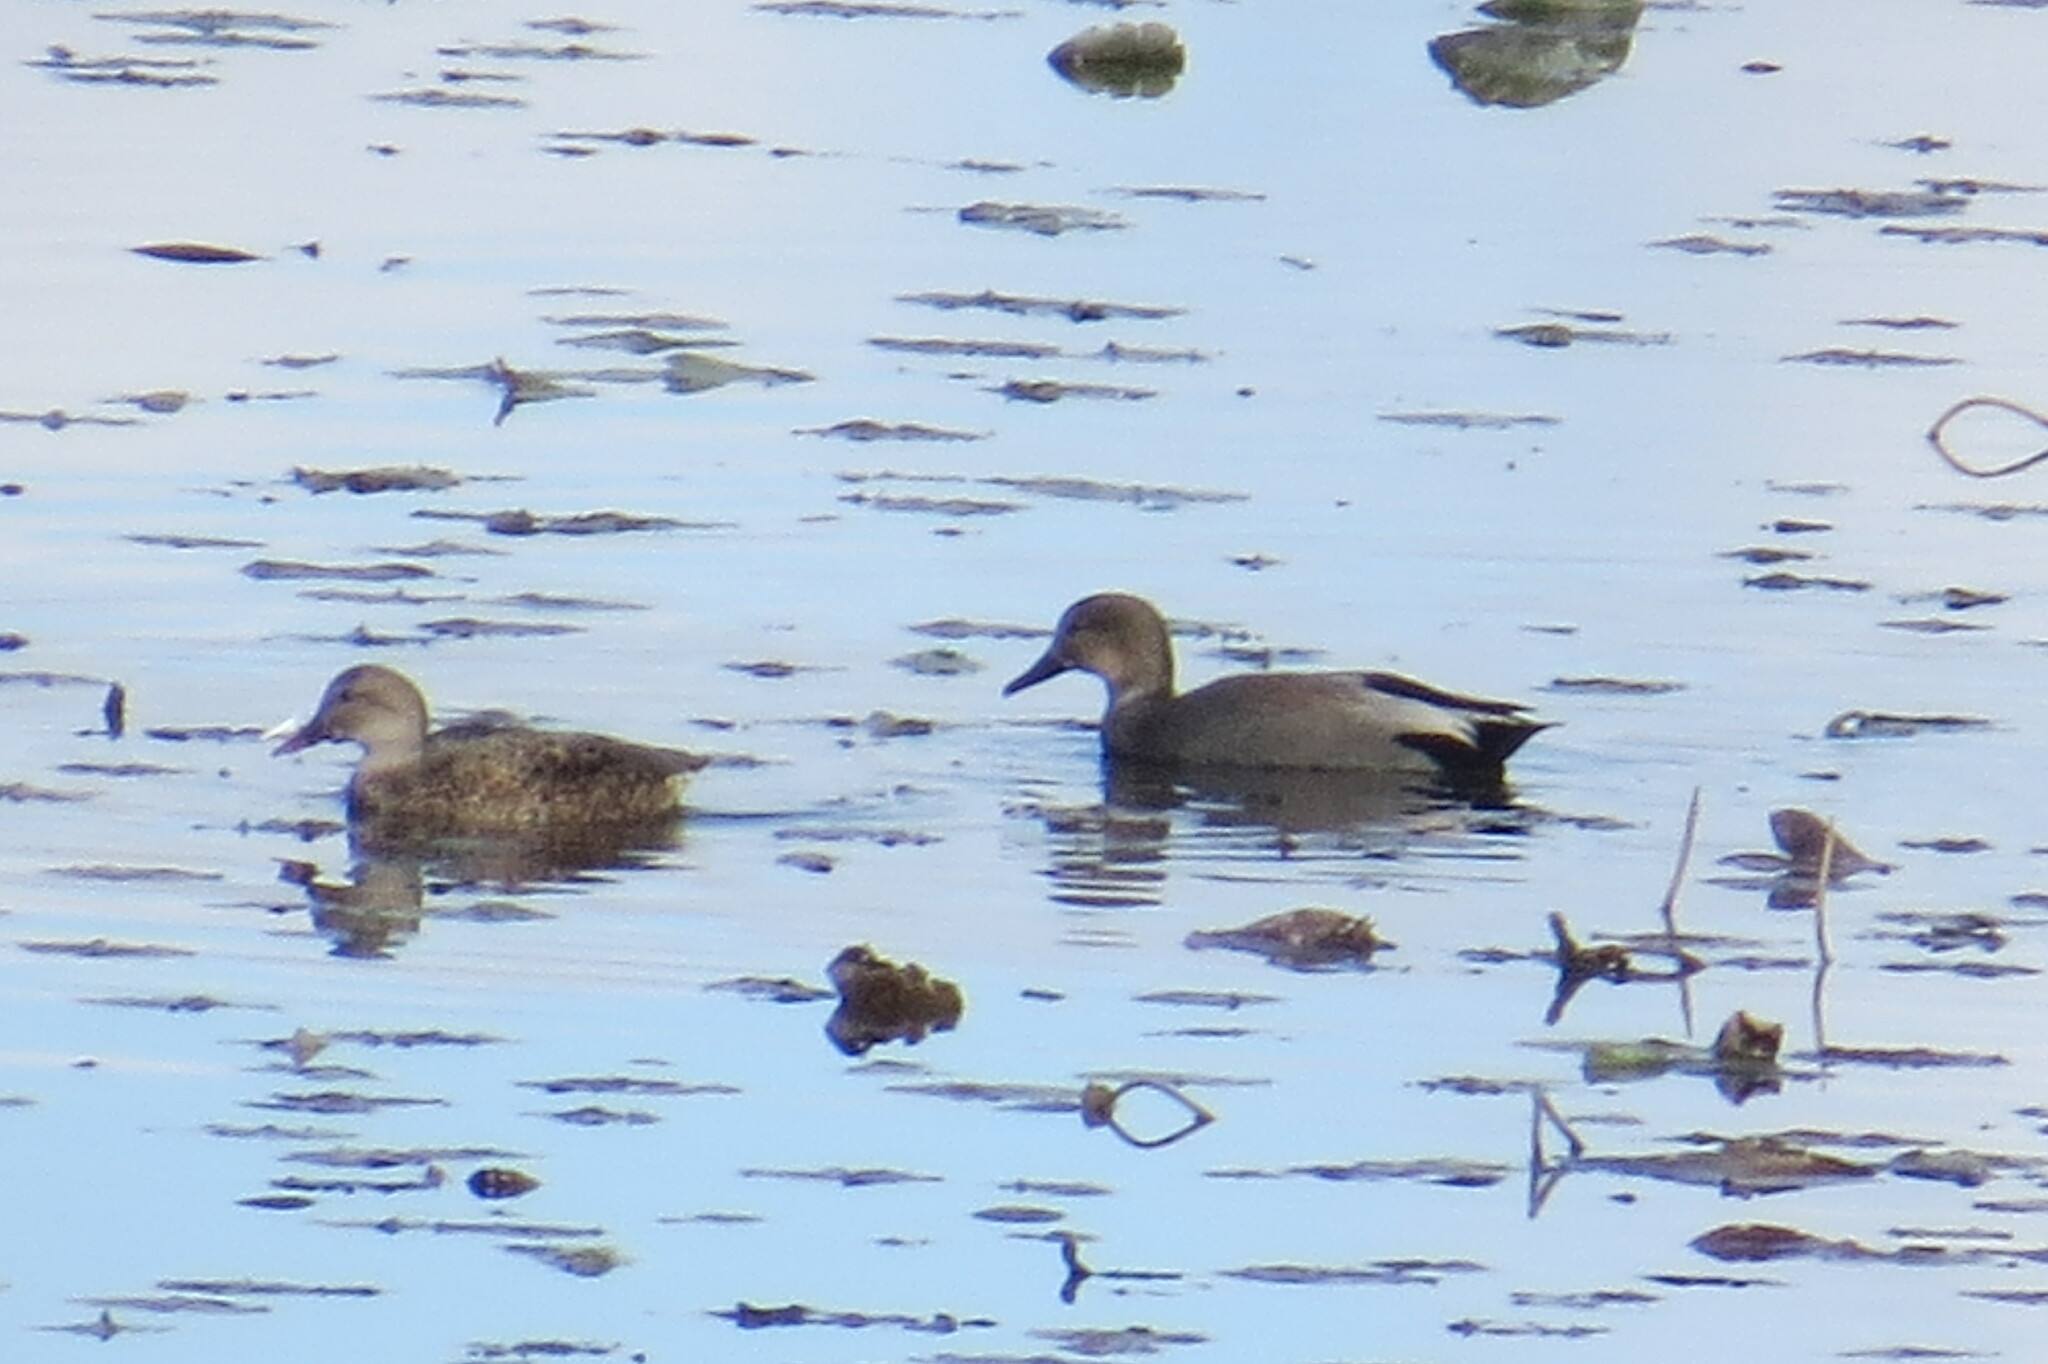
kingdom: Animalia
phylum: Chordata
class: Aves
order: Anseriformes
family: Anatidae
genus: Mareca
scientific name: Mareca strepera
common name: Gadwall
